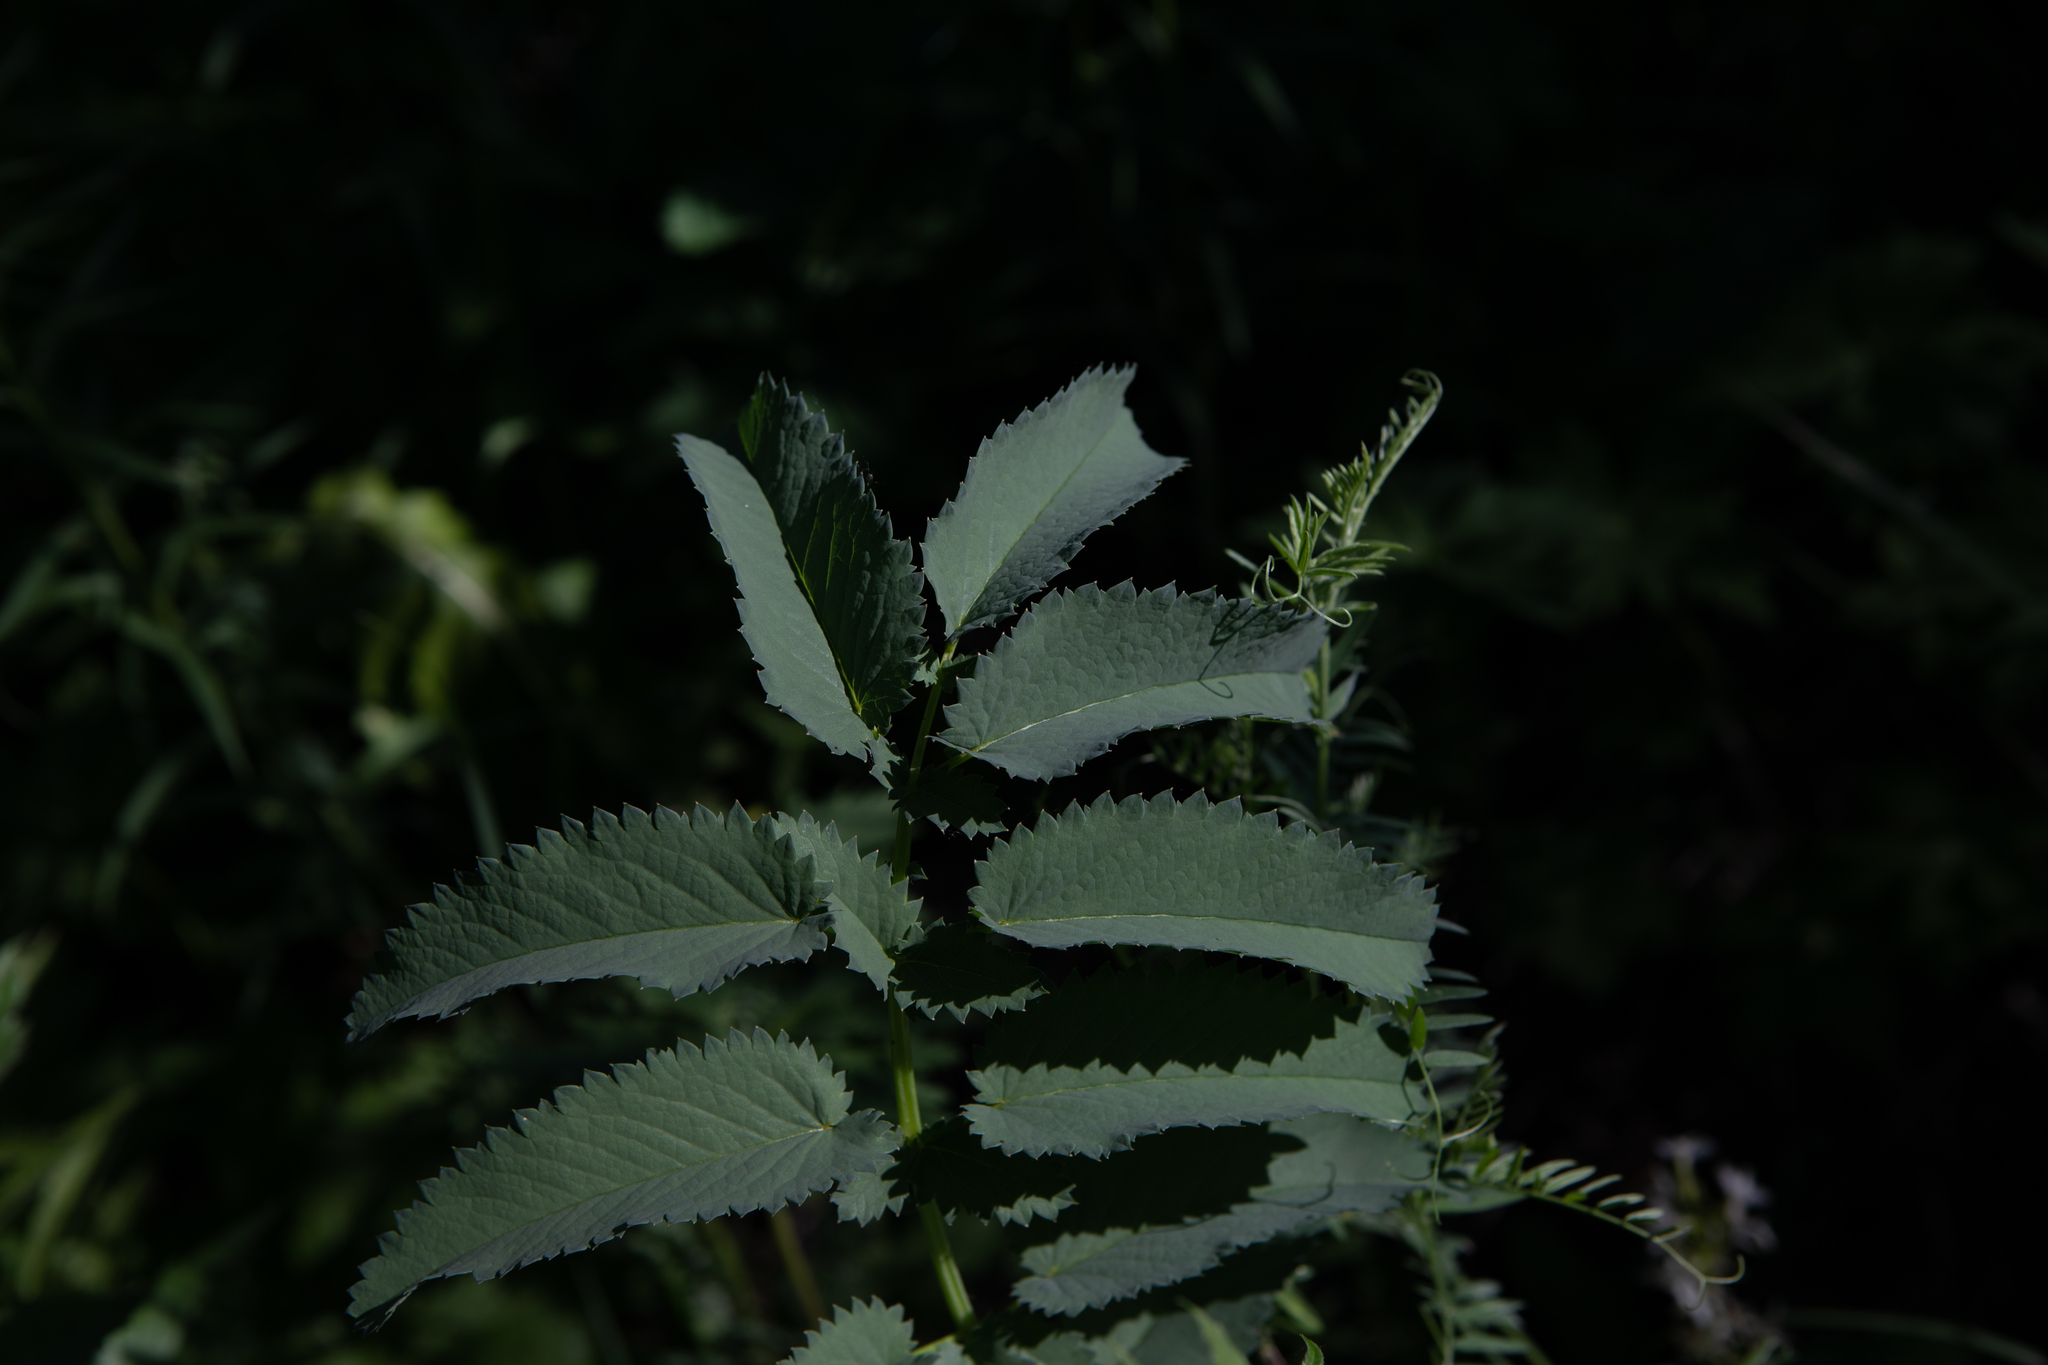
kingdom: Plantae
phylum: Tracheophyta
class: Magnoliopsida
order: Rosales
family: Rosaceae
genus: Sanguisorba
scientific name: Sanguisorba officinalis
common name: Great burnet
